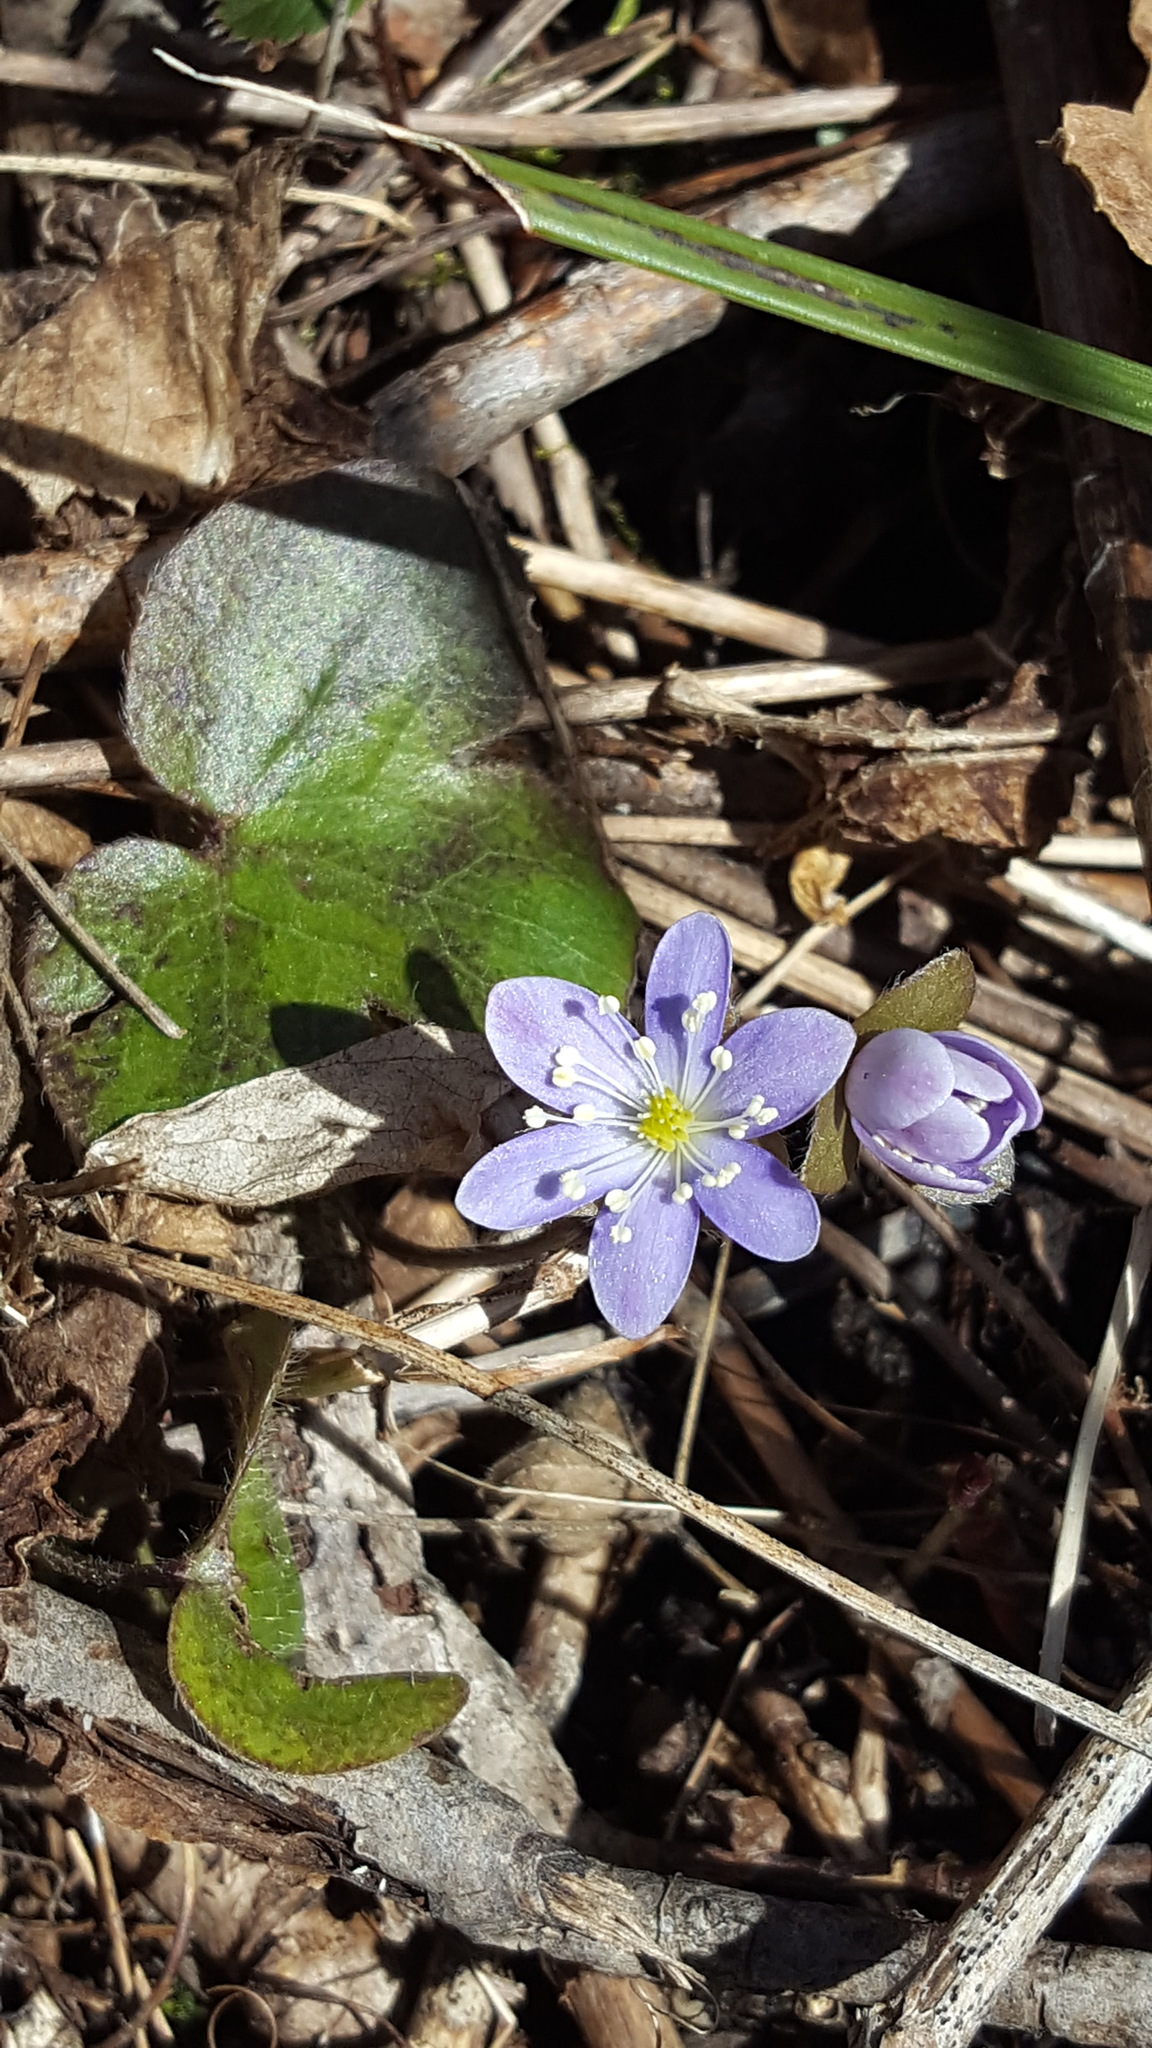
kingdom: Plantae
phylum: Tracheophyta
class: Magnoliopsida
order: Ranunculales
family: Ranunculaceae
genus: Hepatica
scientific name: Hepatica americana
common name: American hepatica
